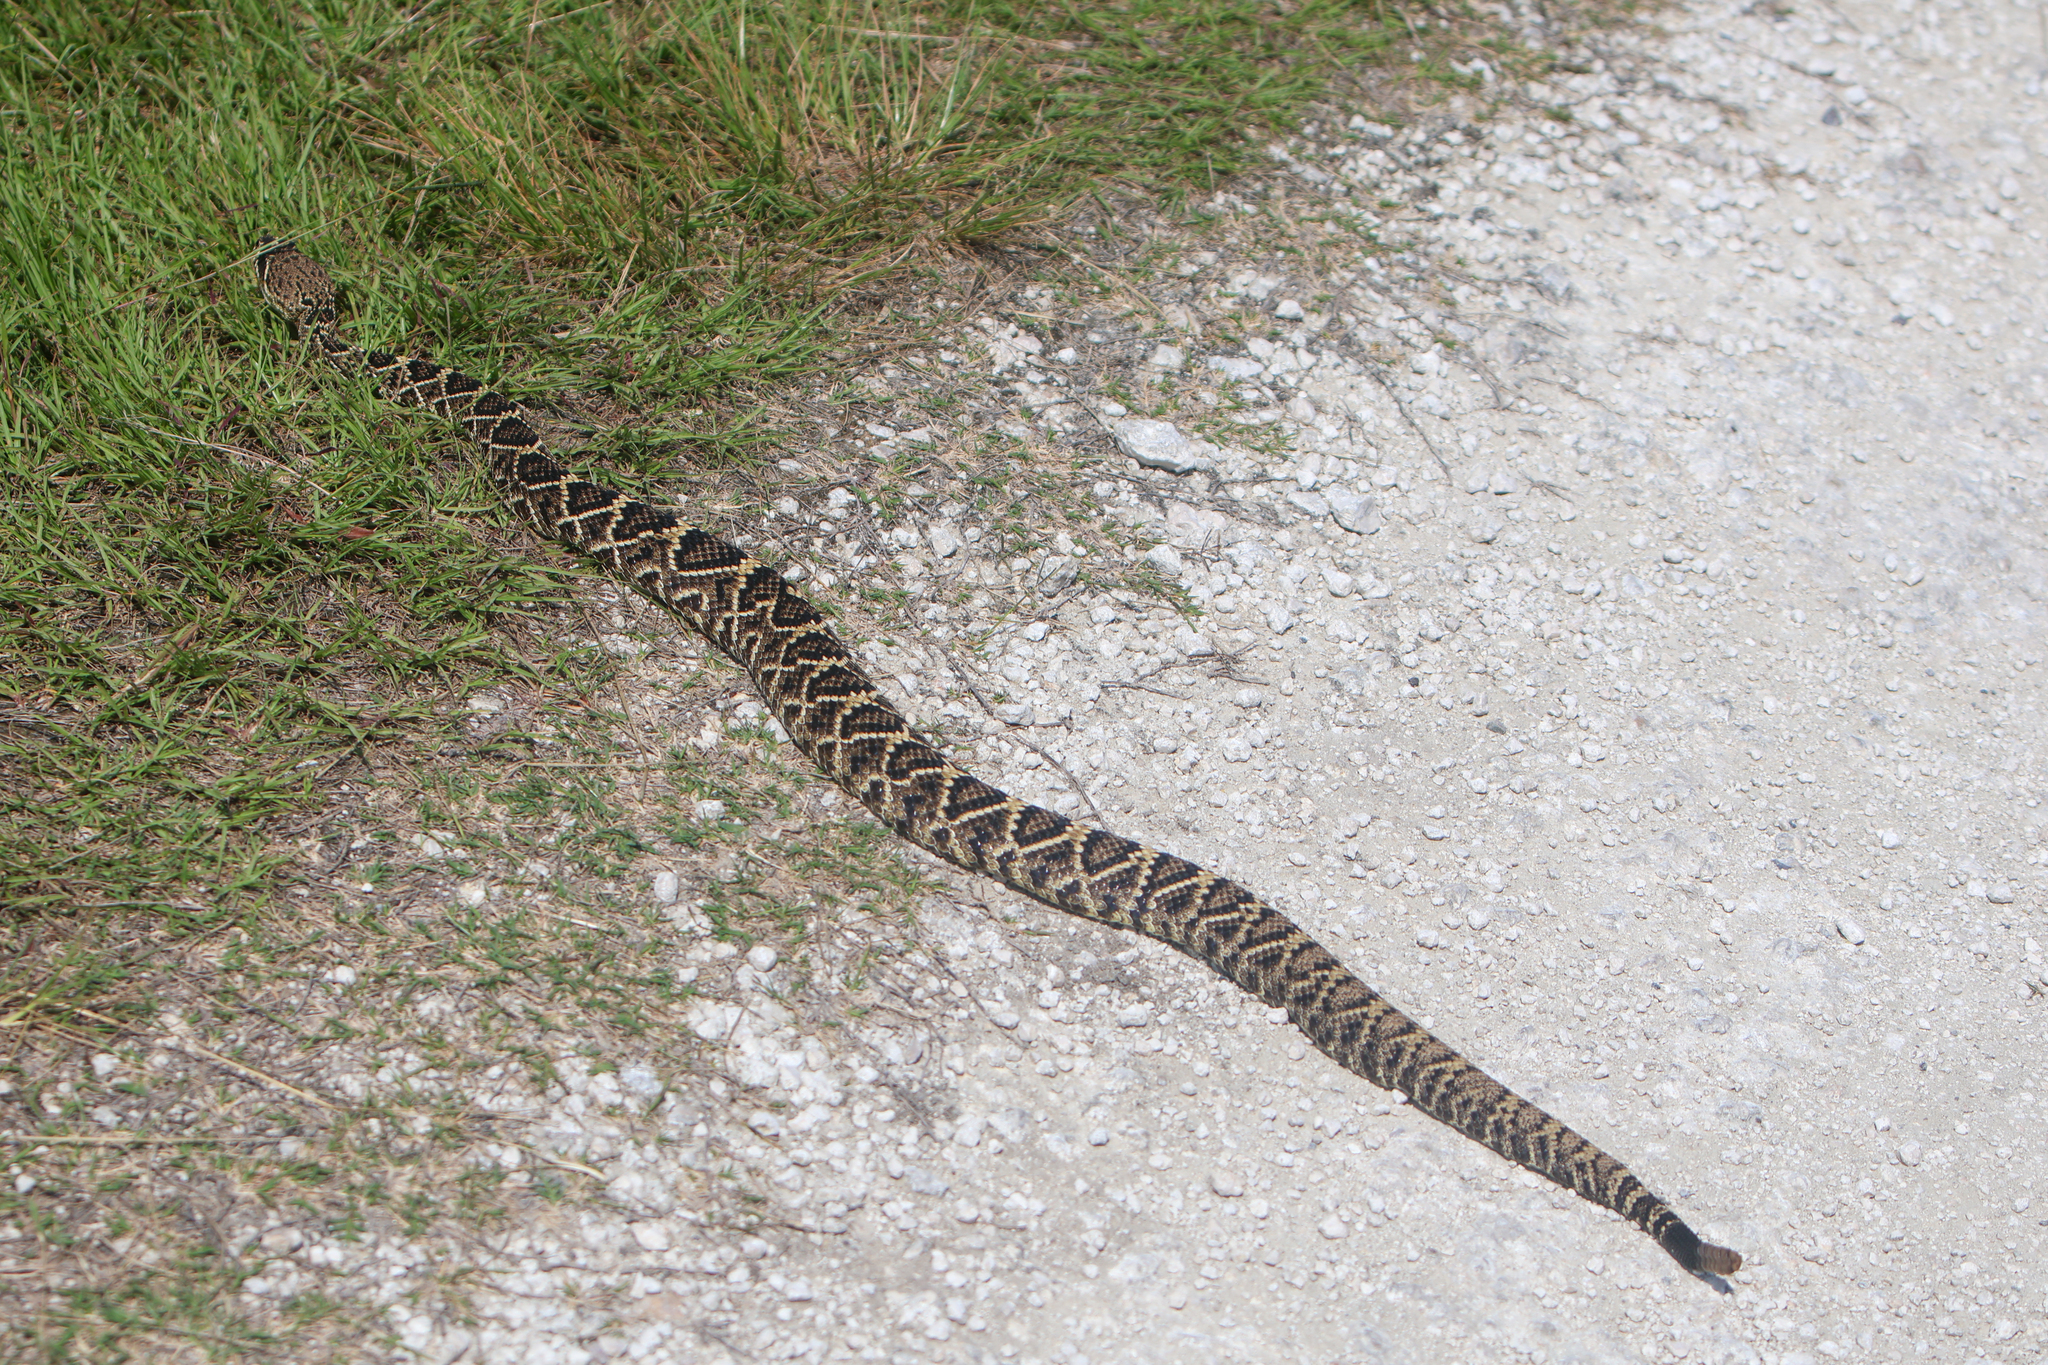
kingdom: Animalia
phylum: Chordata
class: Squamata
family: Viperidae
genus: Crotalus
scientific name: Crotalus adamanteus
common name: Eastern diamondback rattlesnake
